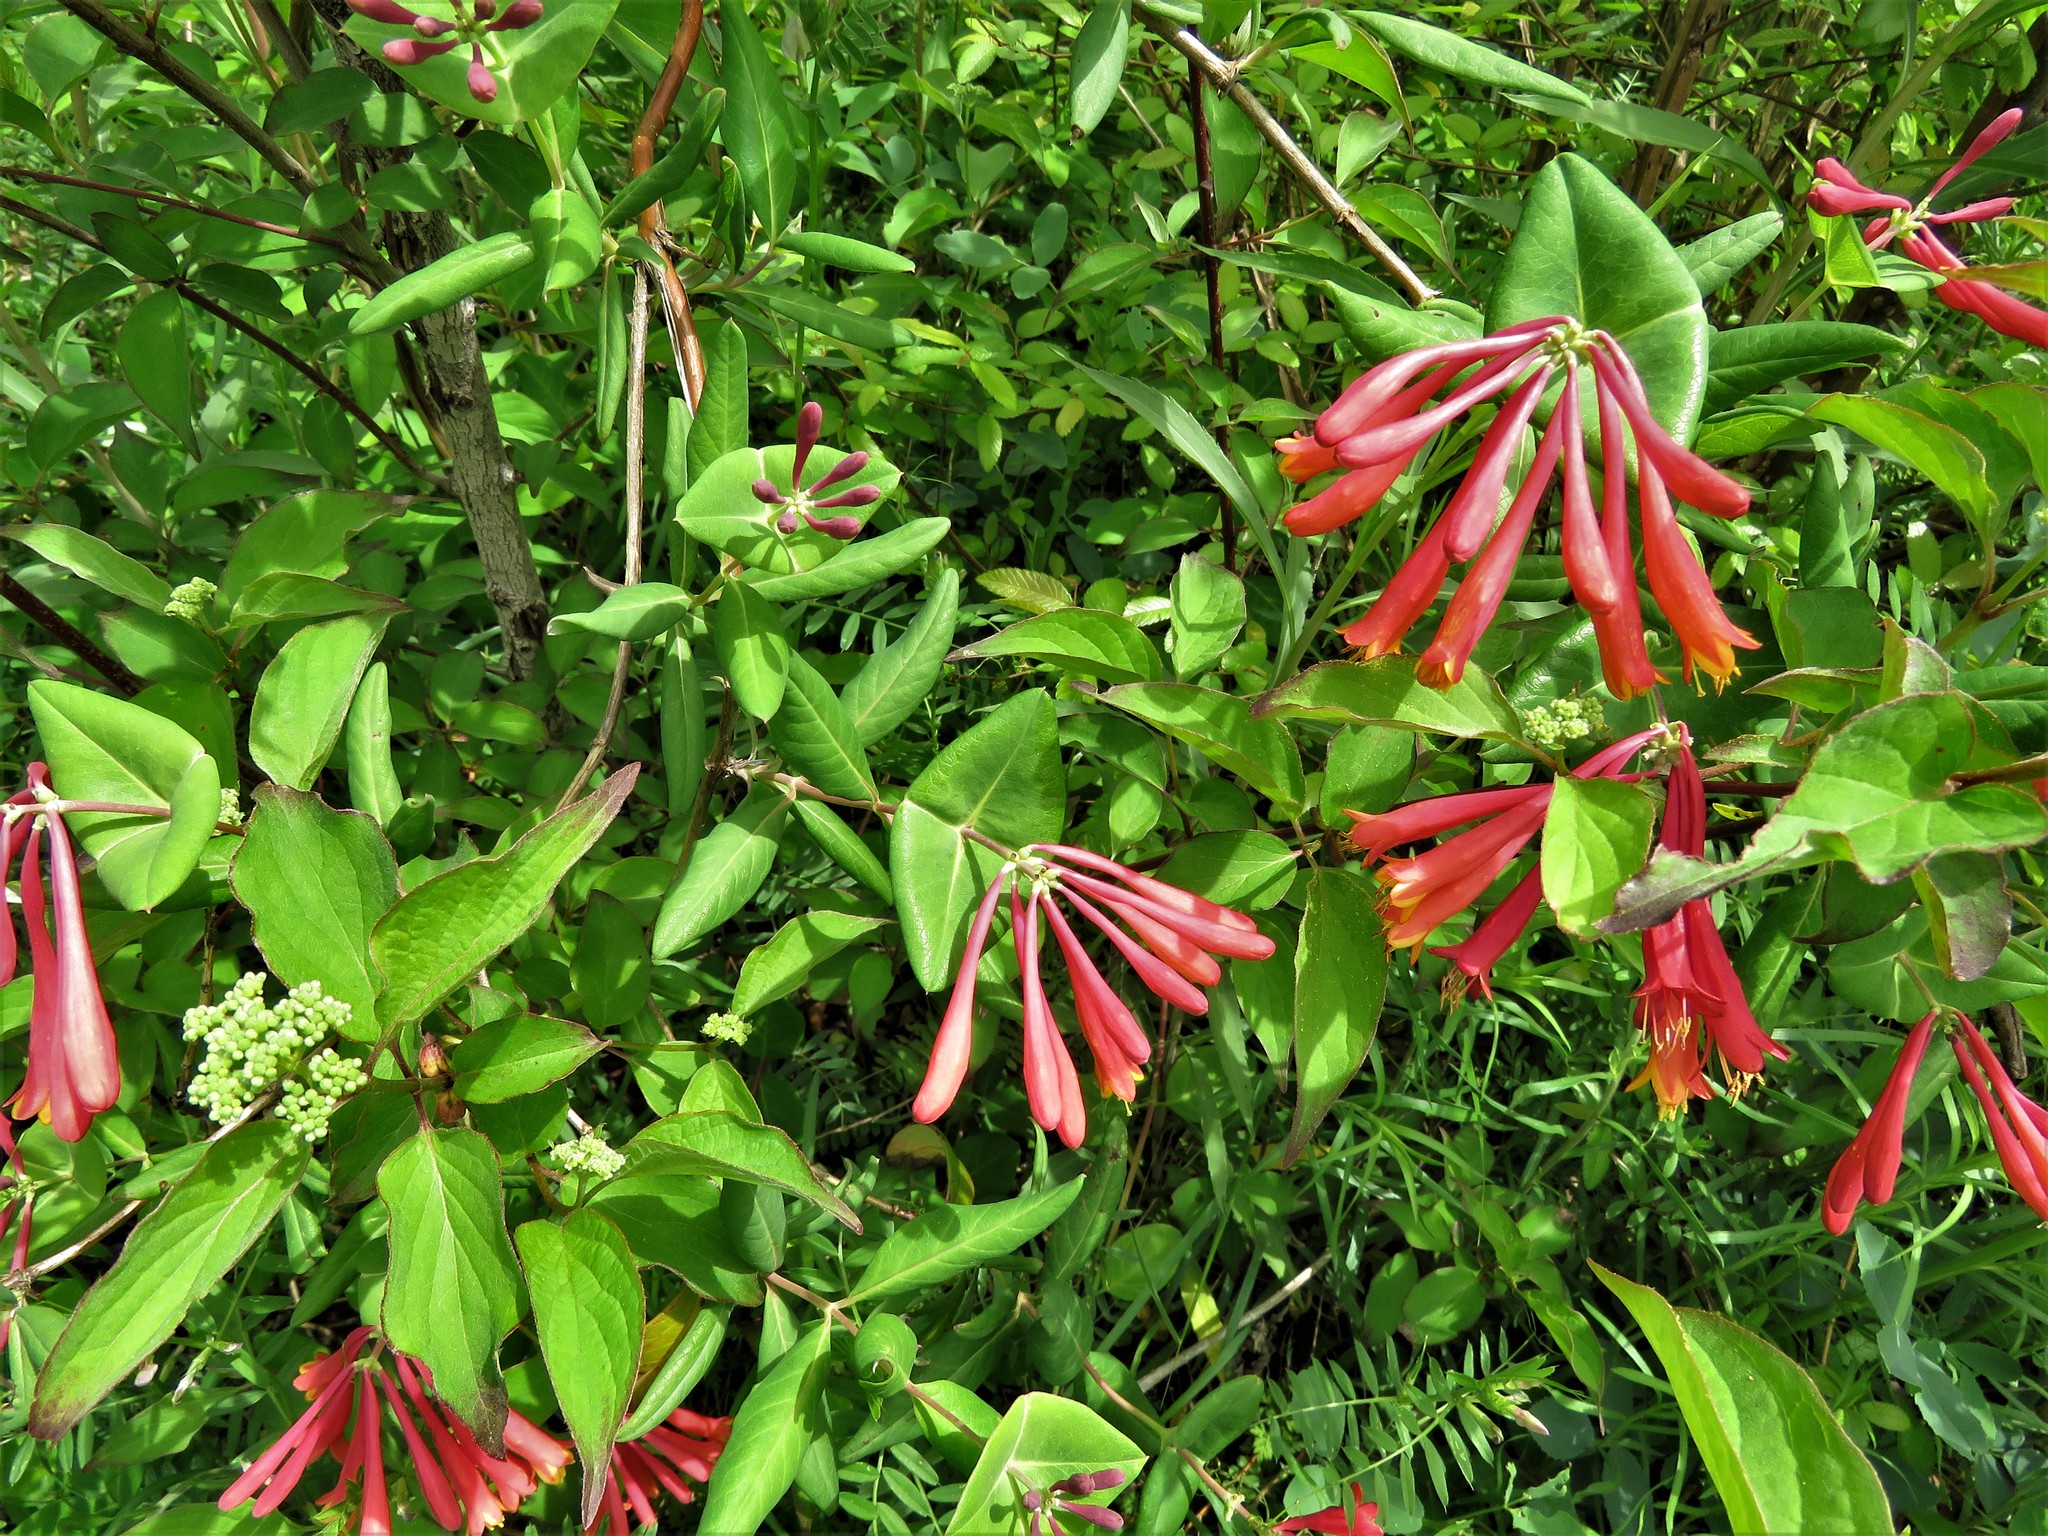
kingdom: Plantae
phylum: Tracheophyta
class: Magnoliopsida
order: Dipsacales
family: Caprifoliaceae
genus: Lonicera
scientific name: Lonicera sempervirens
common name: Coral honeysuckle
